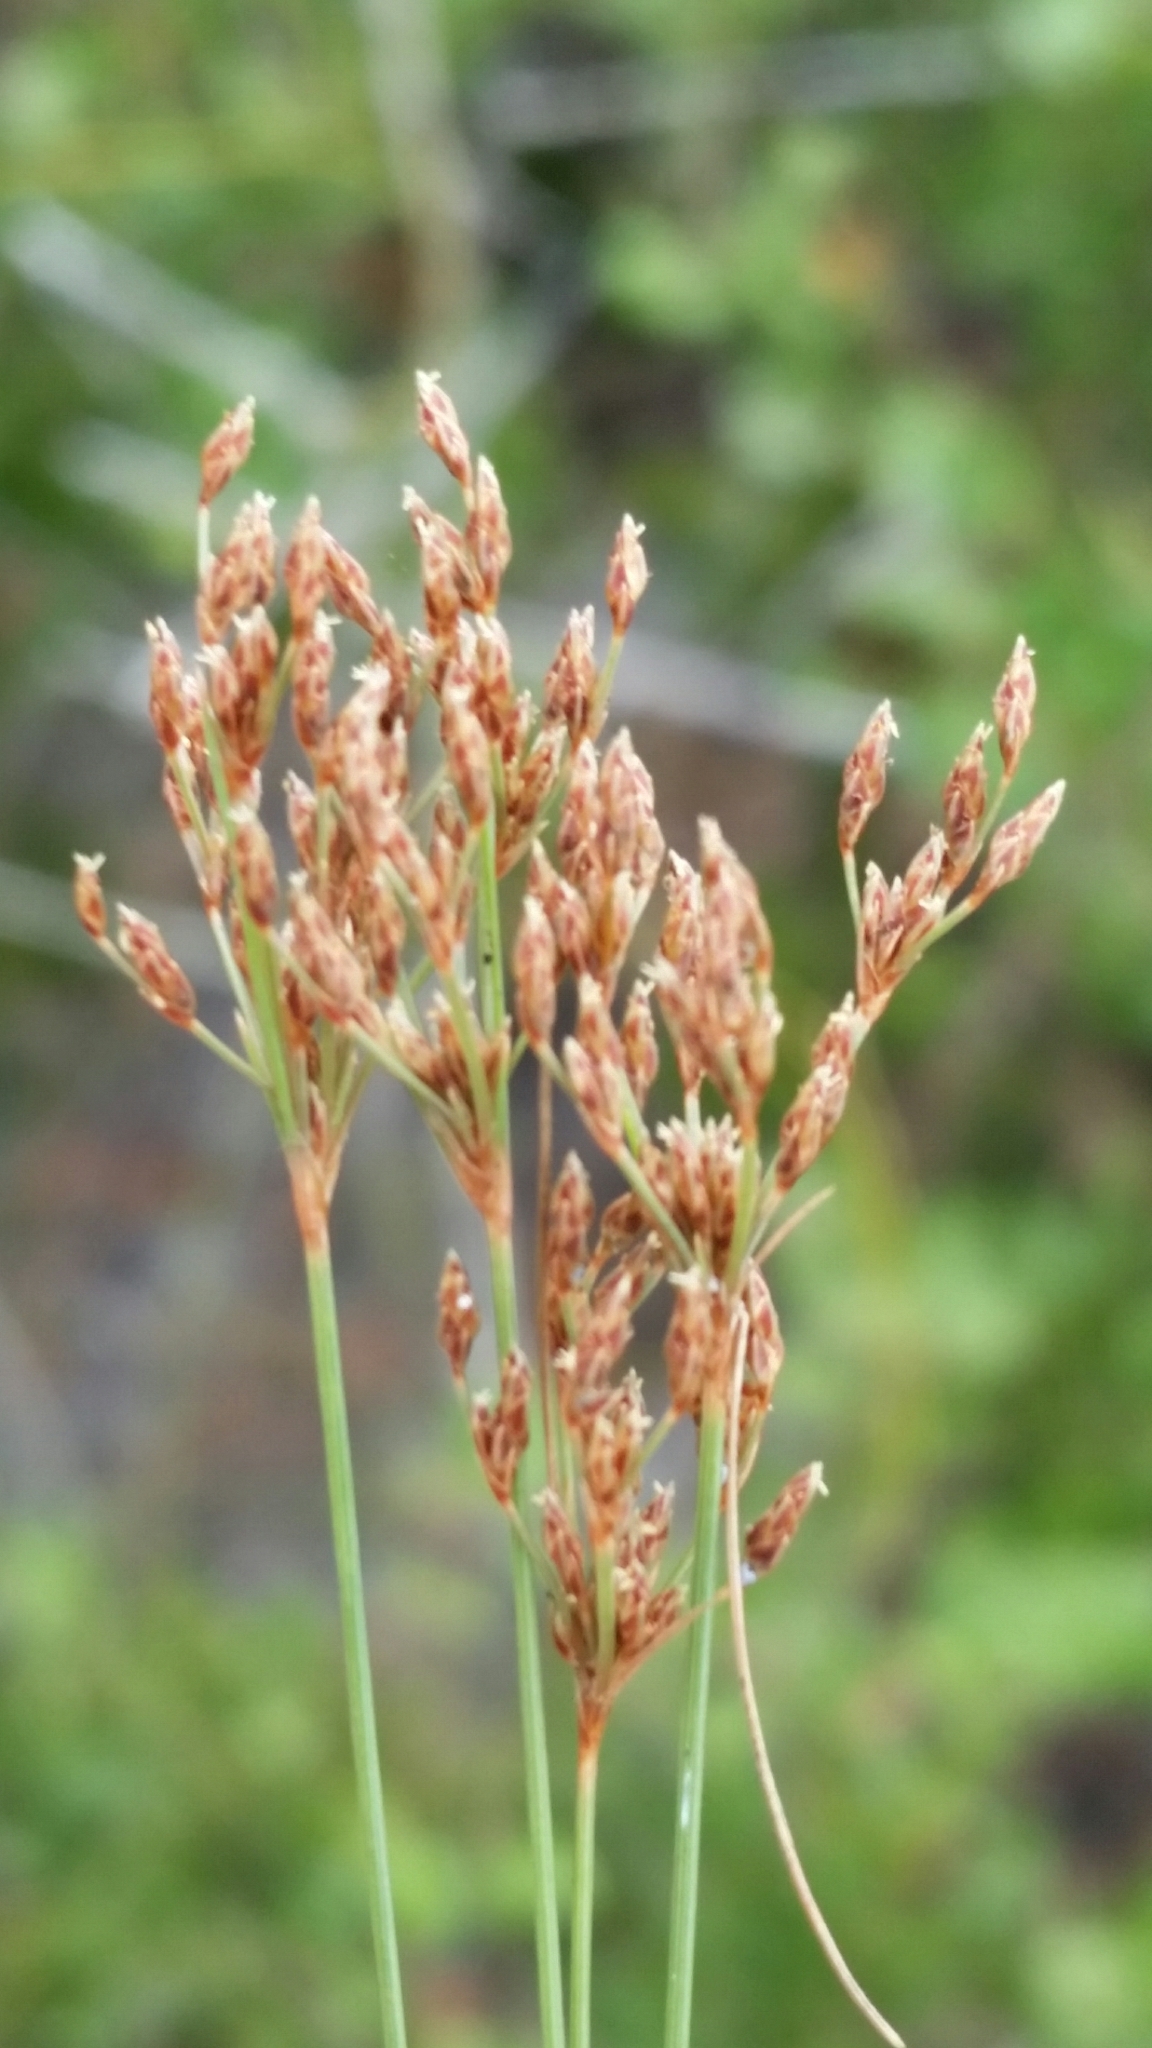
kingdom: Plantae
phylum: Tracheophyta
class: Liliopsida
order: Poales
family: Cyperaceae
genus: Bulbostylis
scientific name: Bulbostylis ciliatifolia
